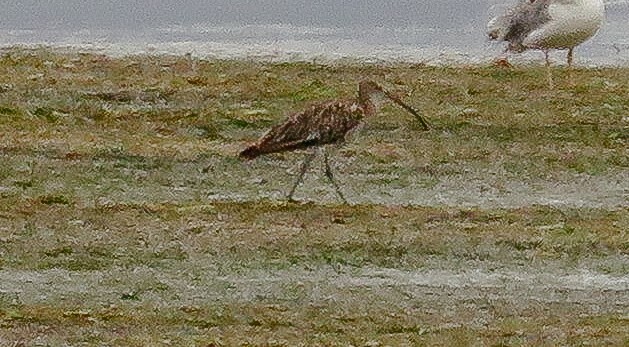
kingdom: Animalia
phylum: Chordata
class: Aves
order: Charadriiformes
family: Scolopacidae
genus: Numenius
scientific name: Numenius arquata
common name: Eurasian curlew
